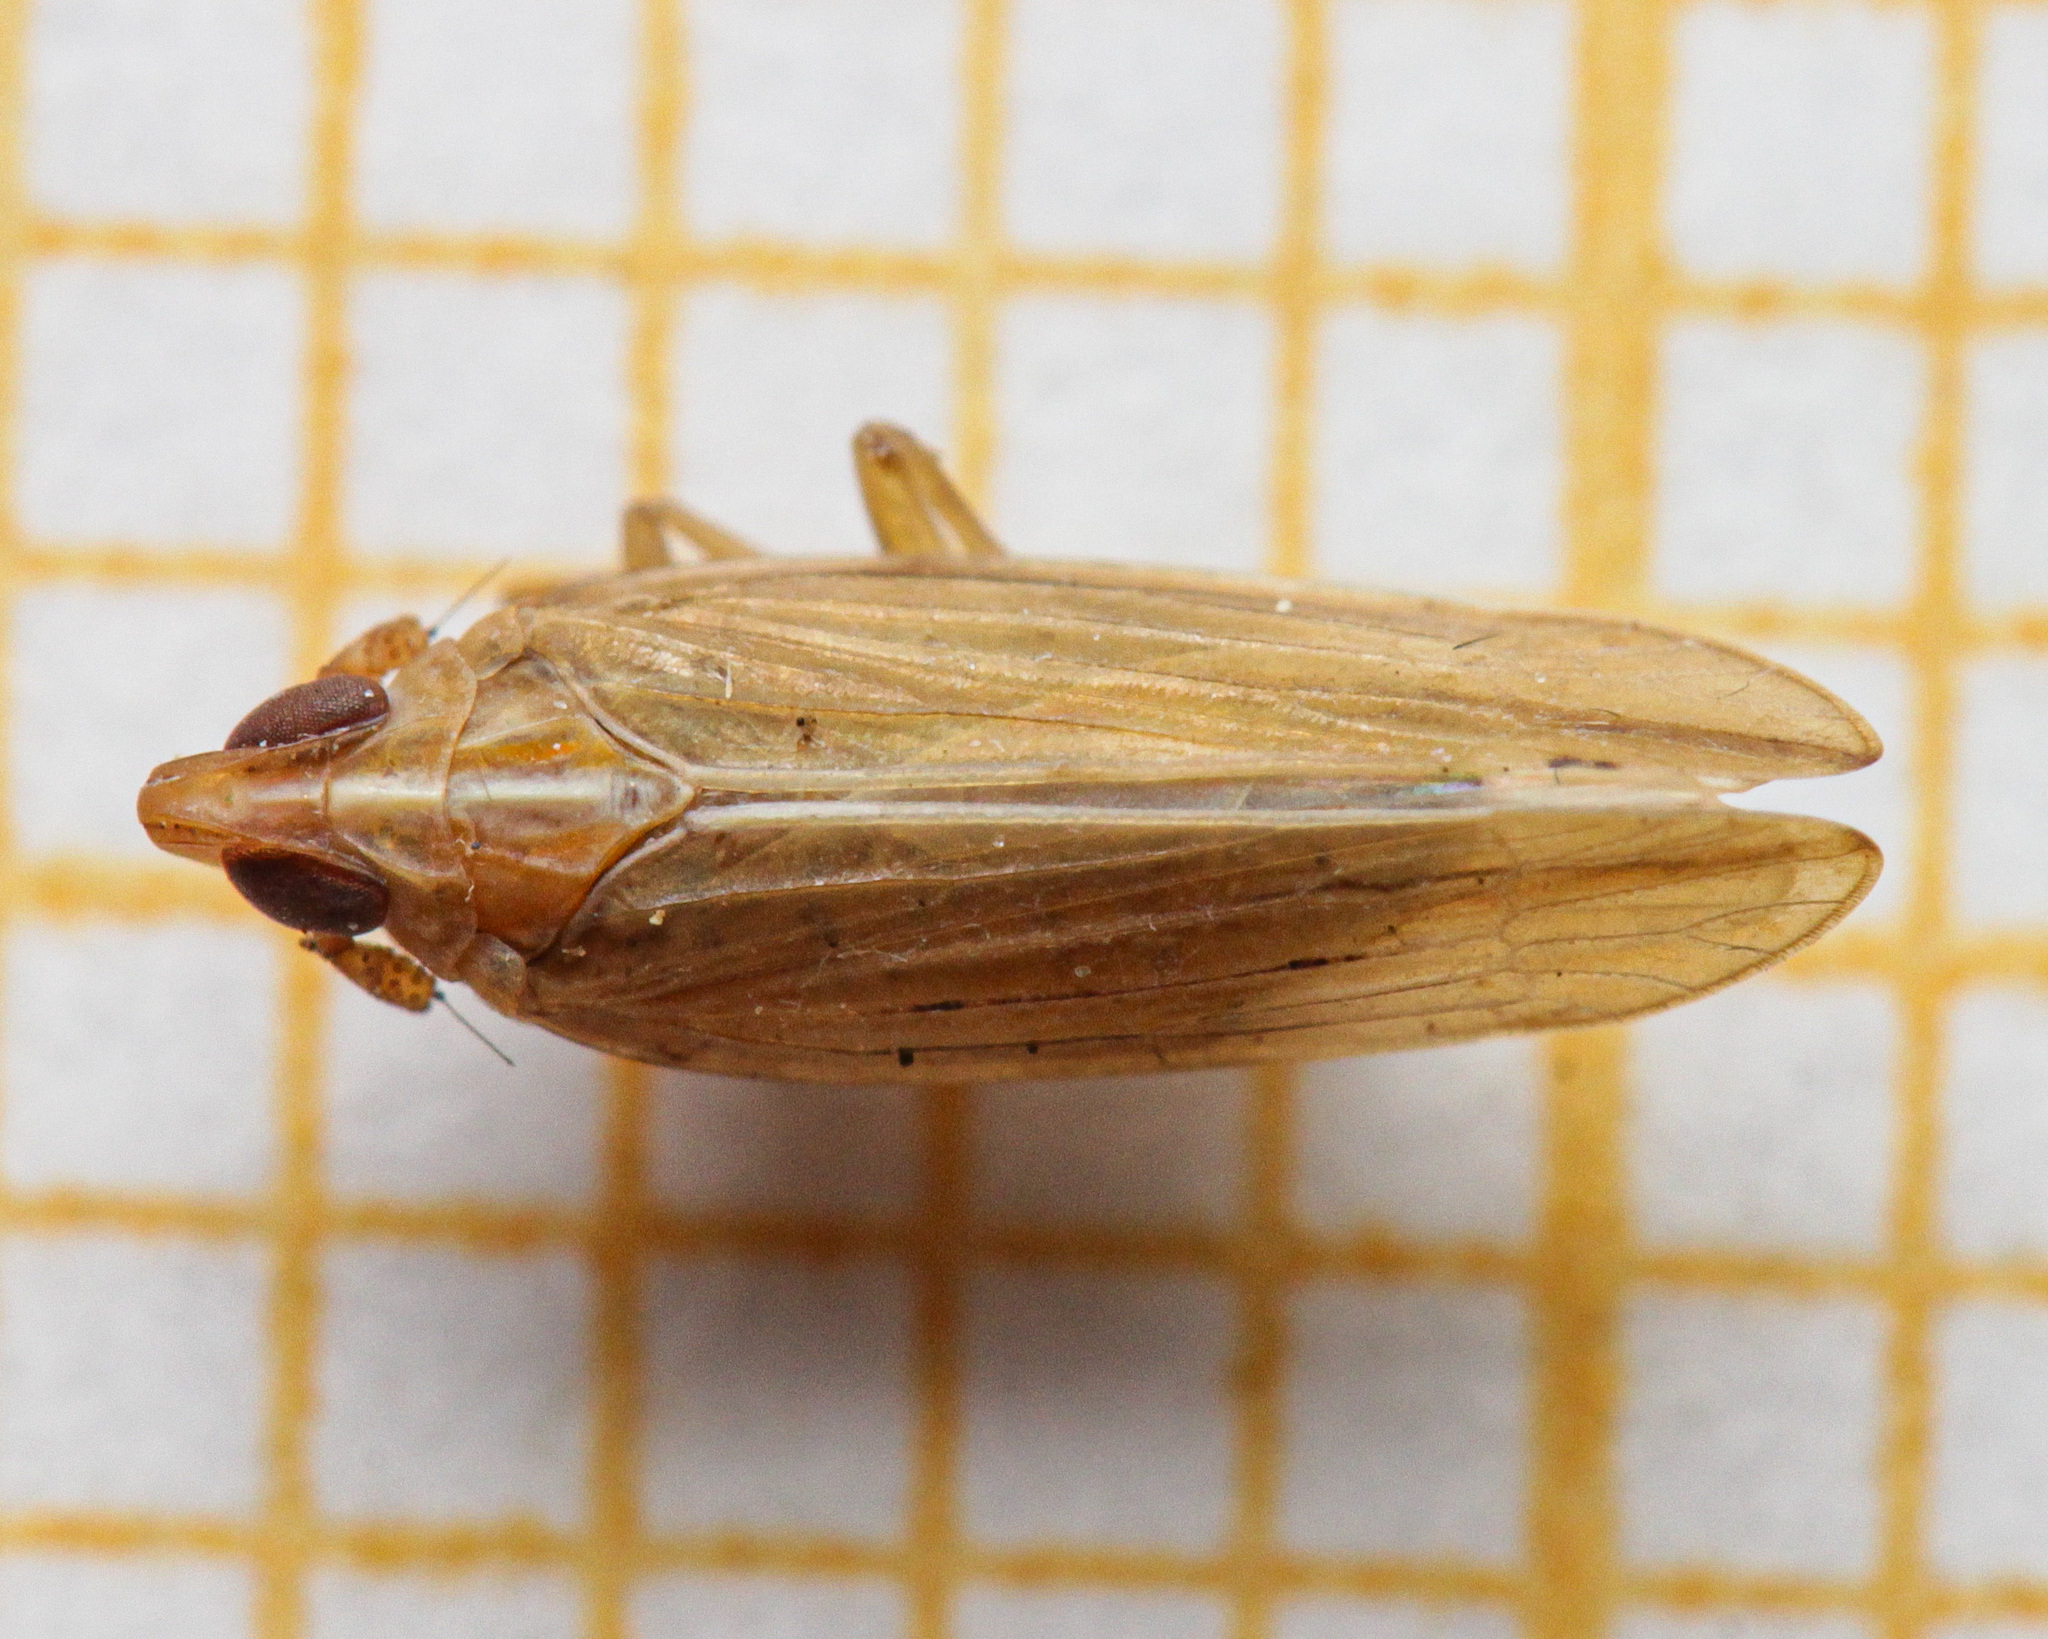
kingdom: Animalia
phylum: Arthropoda
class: Insecta
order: Hemiptera
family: Delphacidae
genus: Stenocranus
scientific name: Stenocranus minutus
